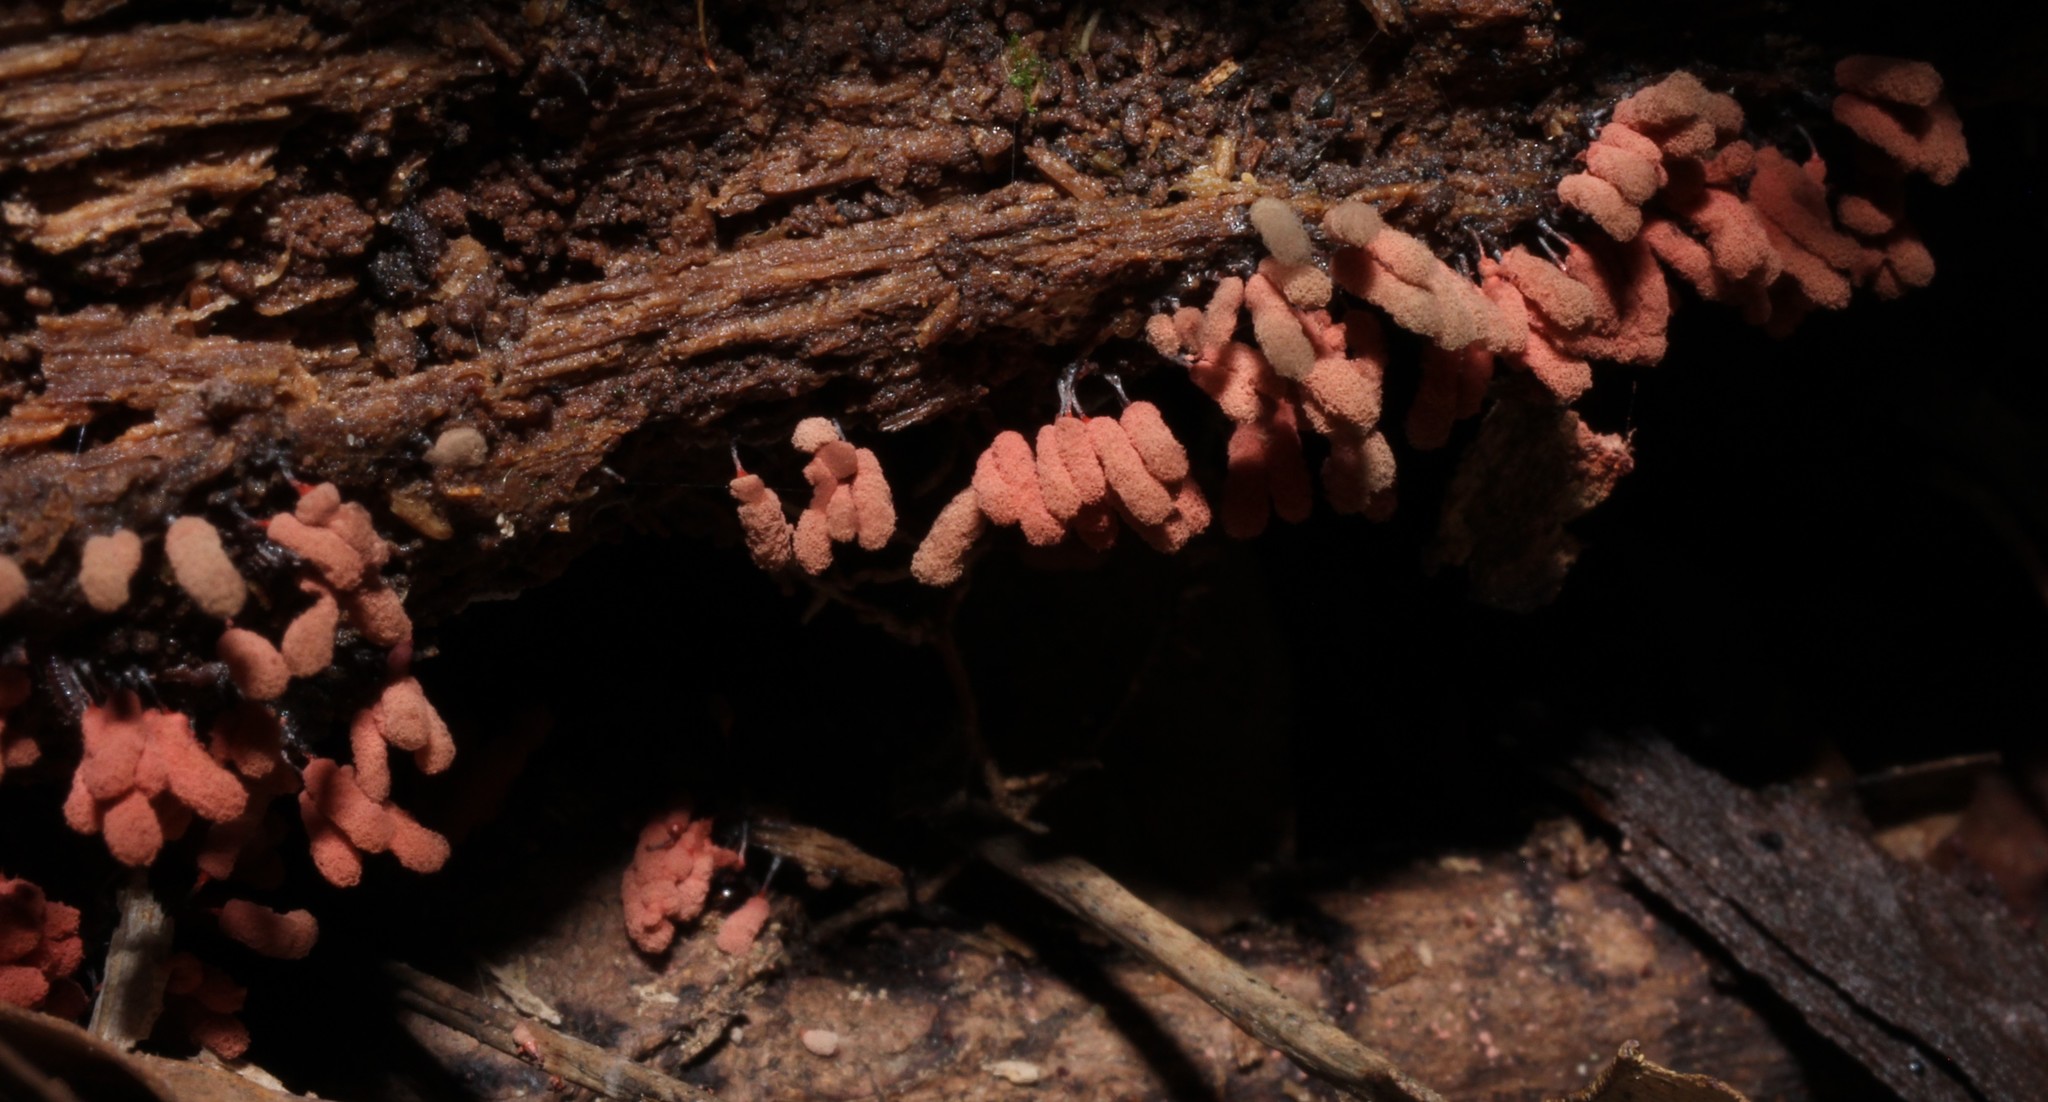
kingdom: Protozoa
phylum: Mycetozoa
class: Myxomycetes
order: Trichiales
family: Arcyriaceae
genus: Arcyria
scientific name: Arcyria denudata
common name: Carnival candy slime mold
